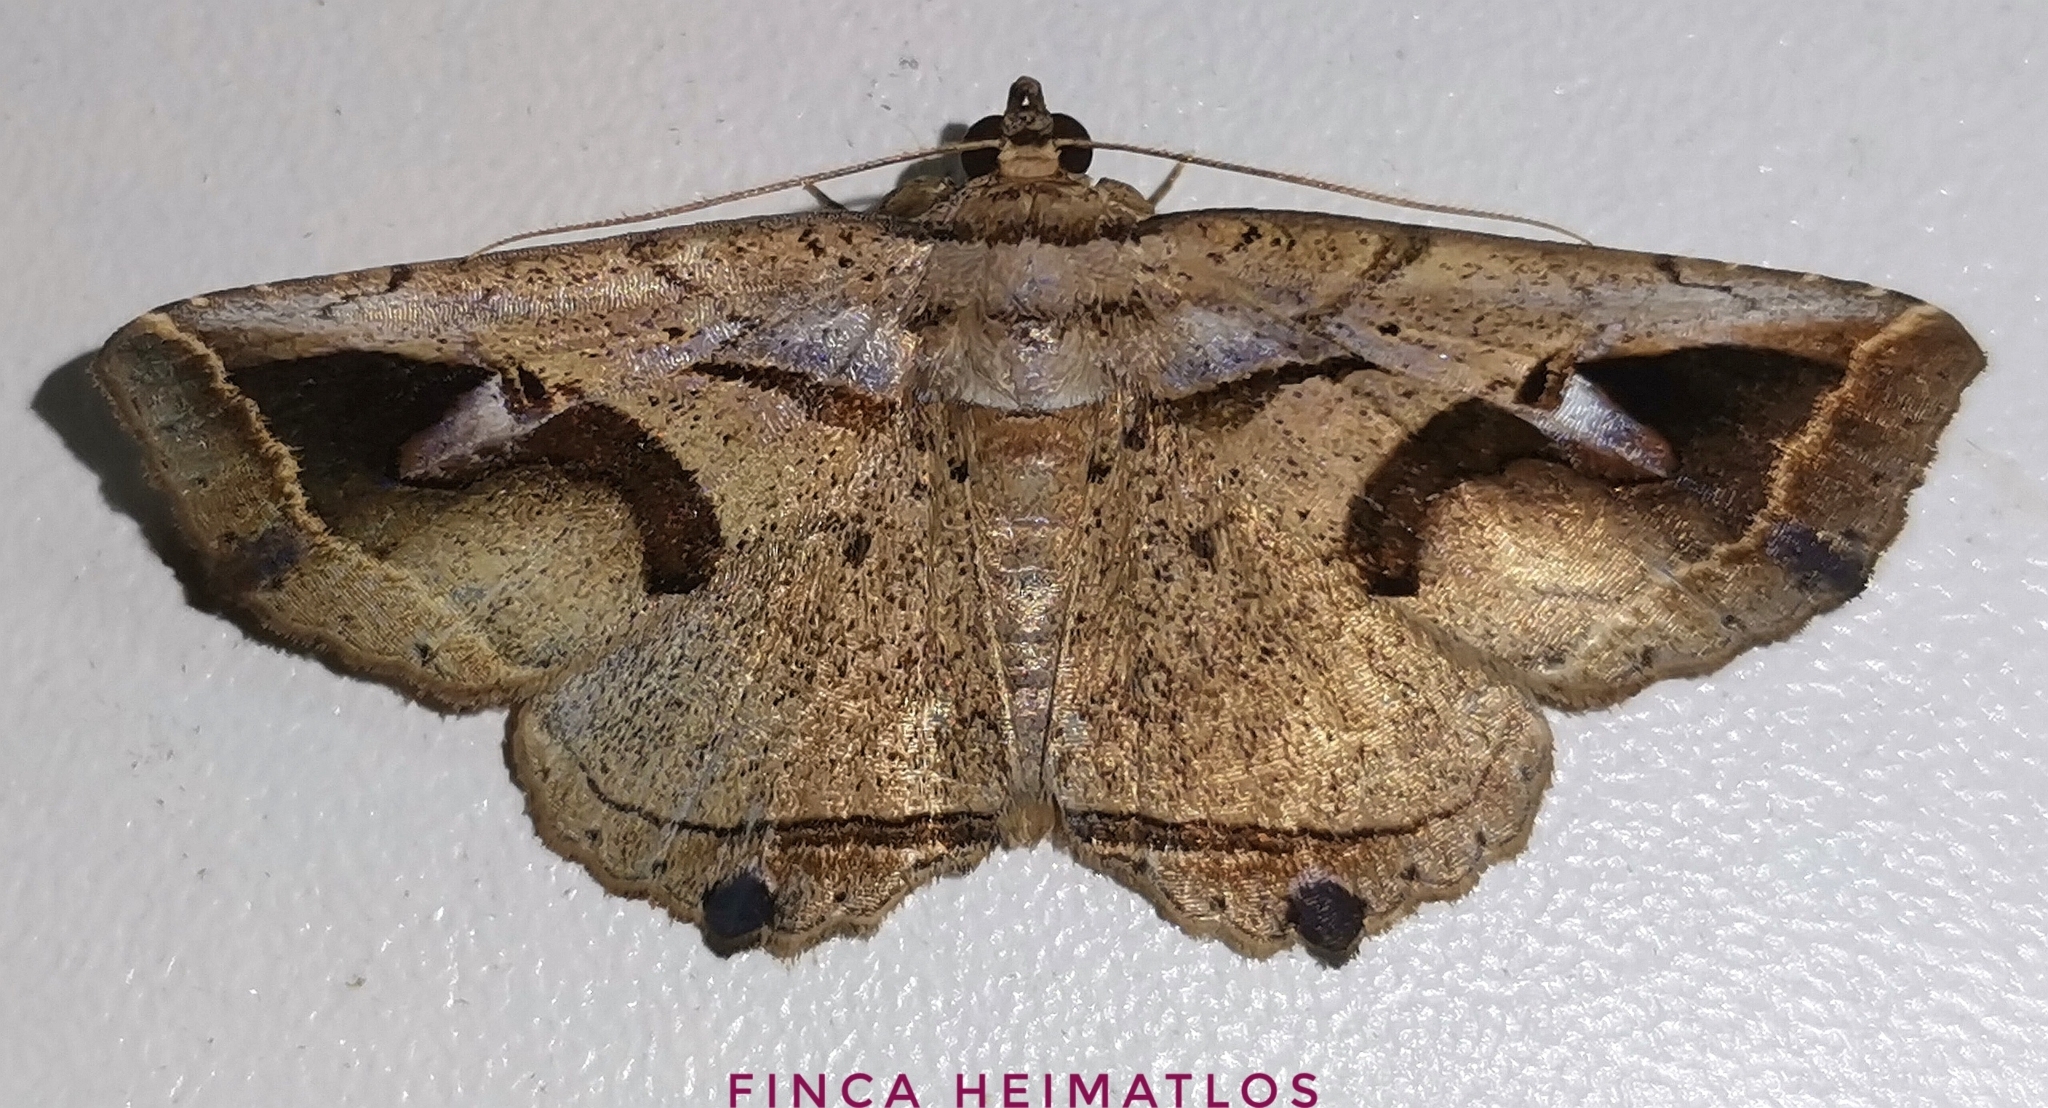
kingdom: Animalia
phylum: Arthropoda
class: Insecta
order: Lepidoptera
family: Erebidae
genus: Peteroma
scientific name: Peteroma conita
